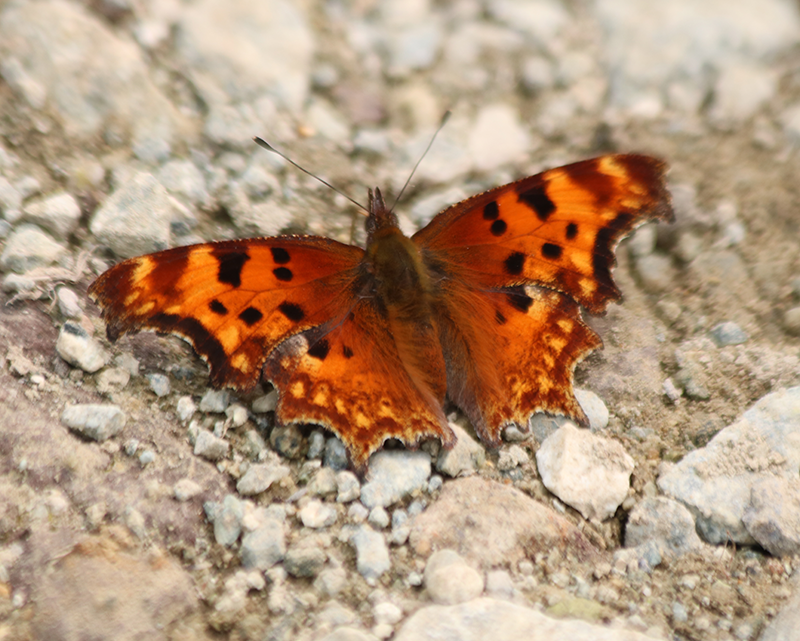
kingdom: Animalia
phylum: Arthropoda
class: Insecta
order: Lepidoptera
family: Nymphalidae
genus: Polygonia
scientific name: Polygonia gracilis
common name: Hoary comma
